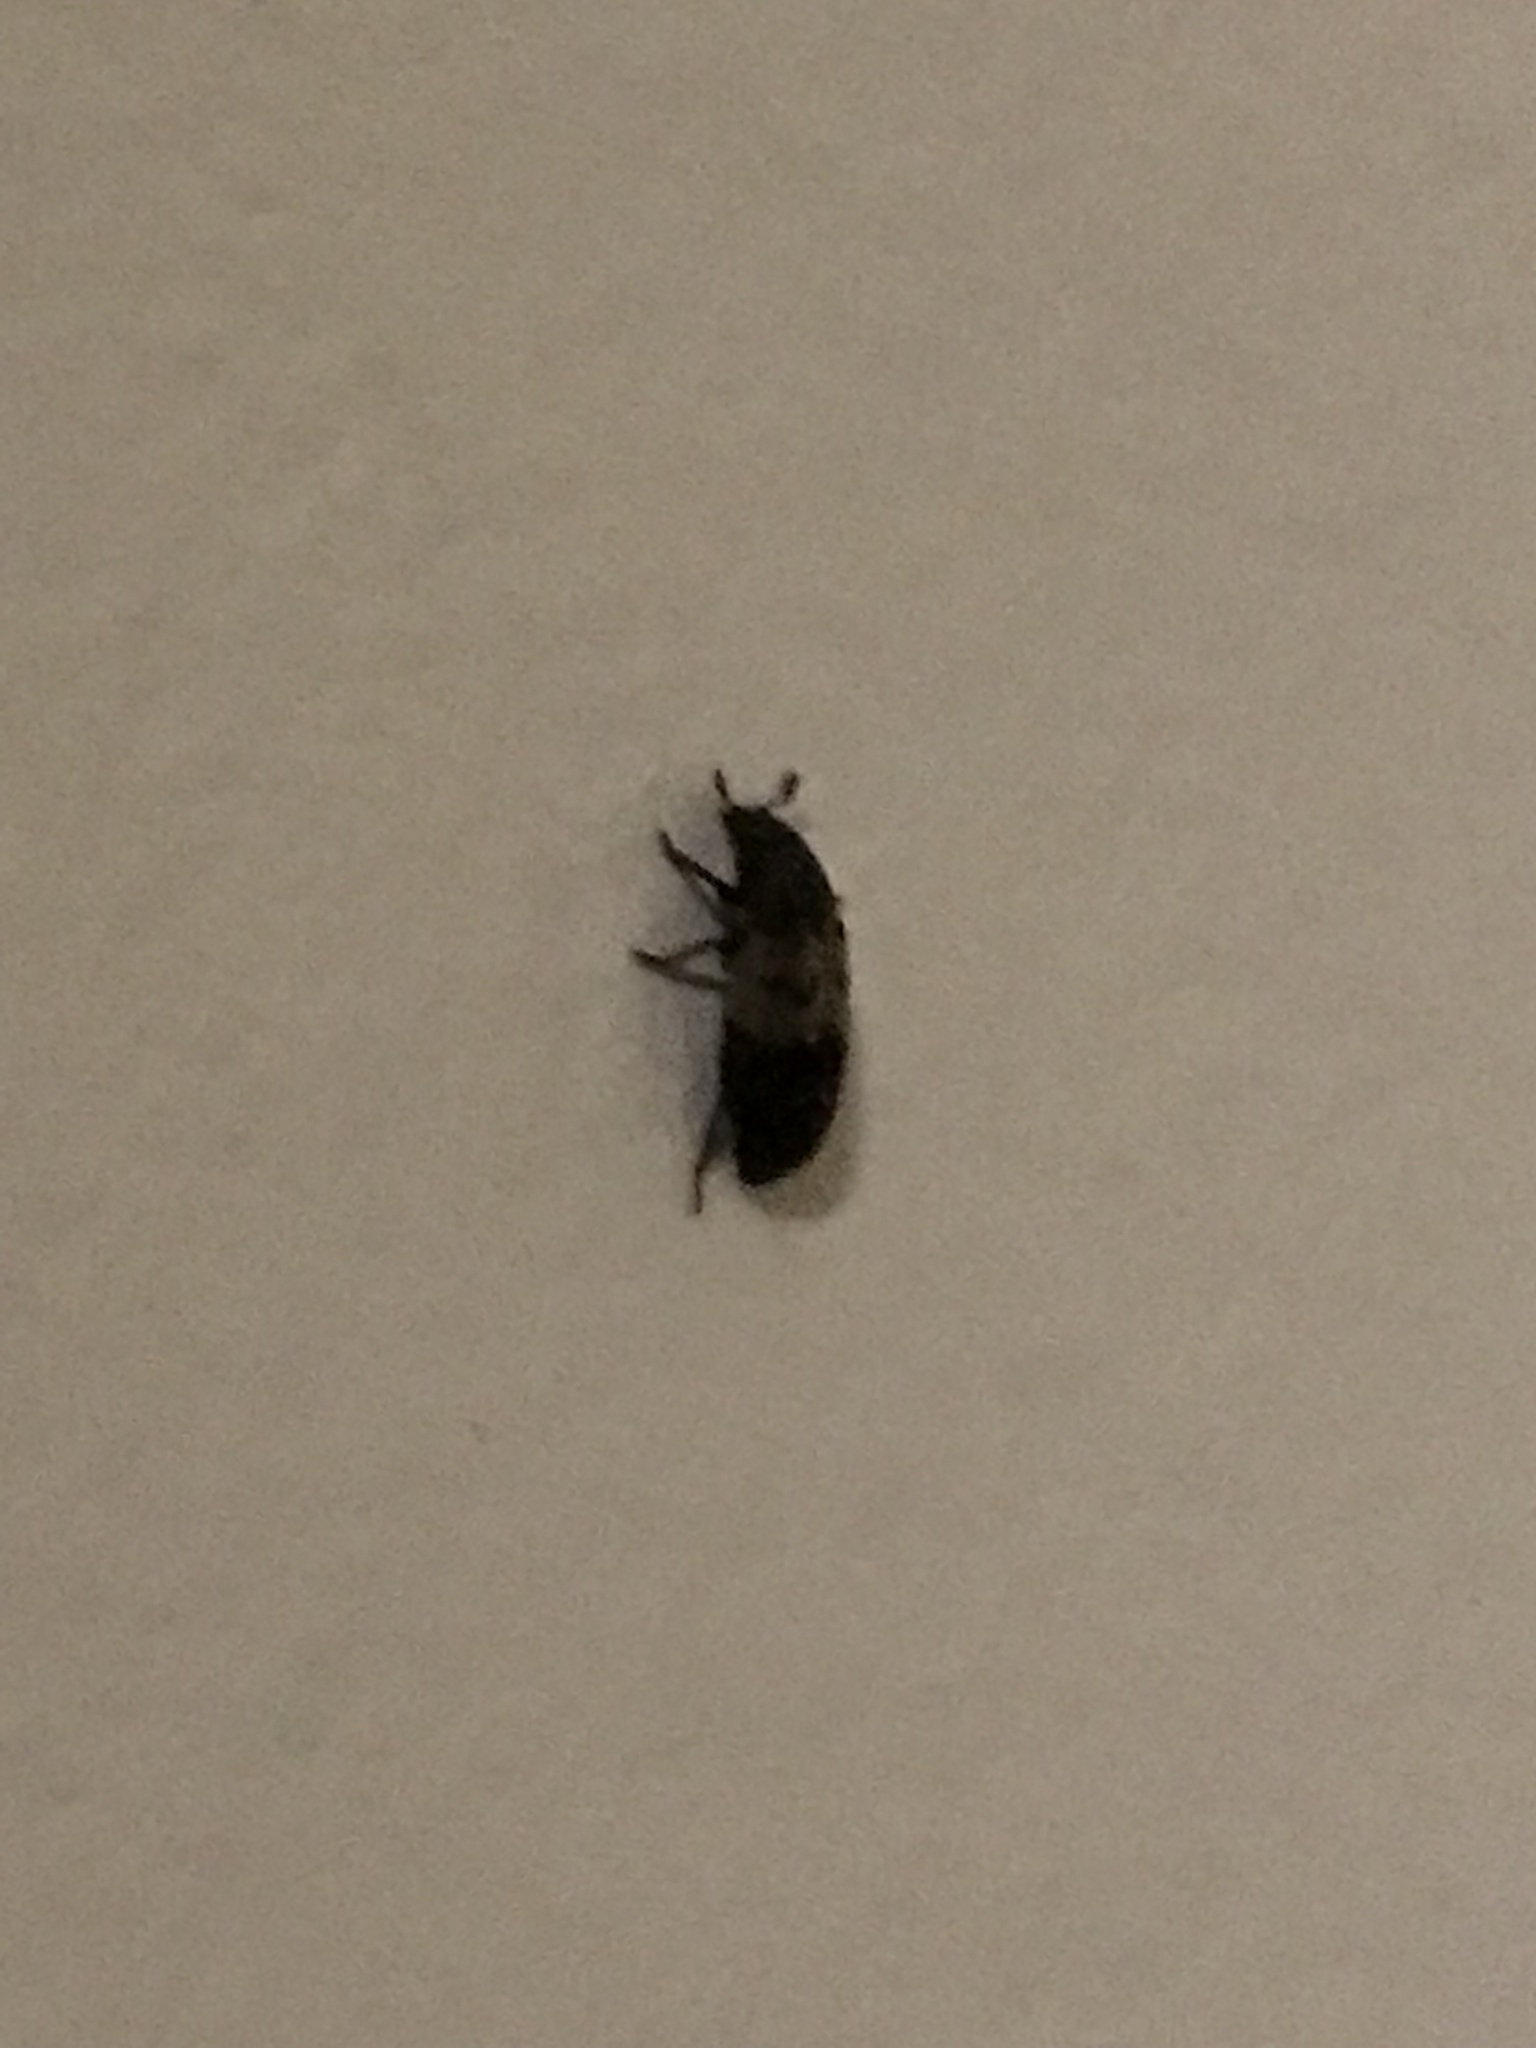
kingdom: Animalia
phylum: Arthropoda
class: Insecta
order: Coleoptera
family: Dermestidae
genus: Dermestes
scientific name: Dermestes lardarius
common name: Larder beetle
